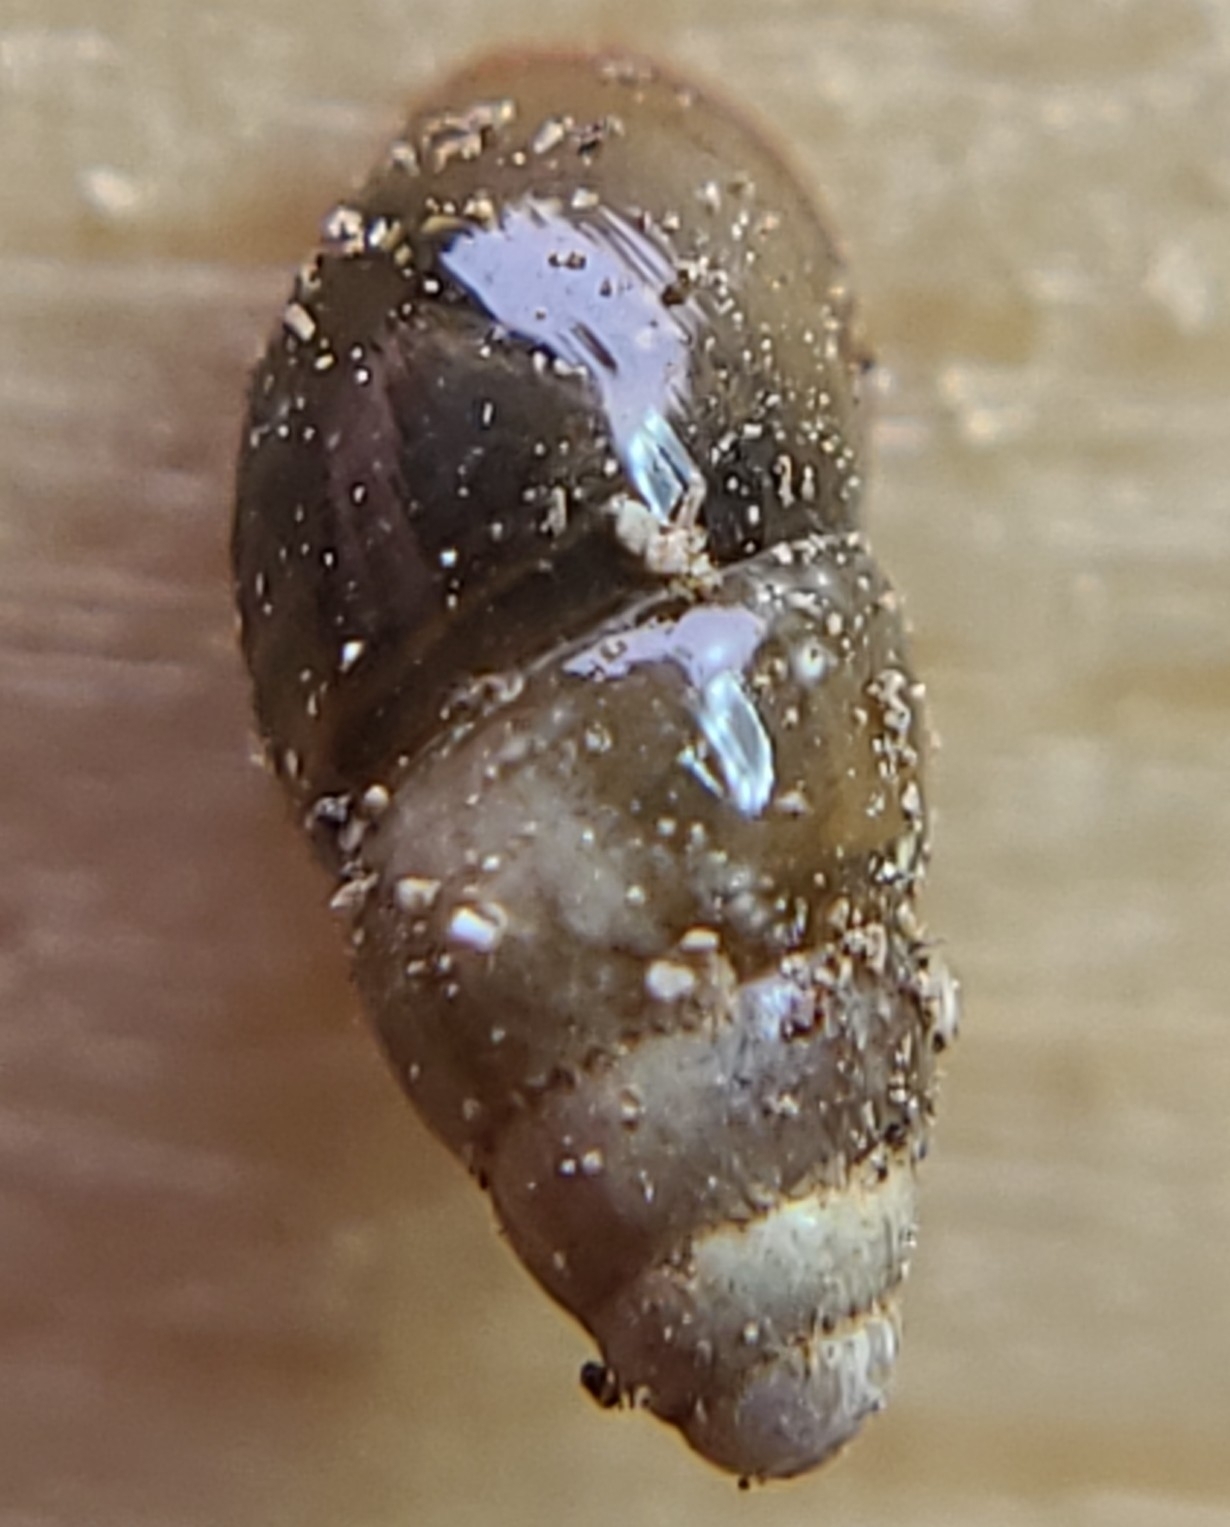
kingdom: Animalia
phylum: Mollusca
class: Gastropoda
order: Stylommatophora
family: Cochlicopidae
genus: Cochlicopa
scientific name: Cochlicopa lubrica
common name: Glossy pillar snail
